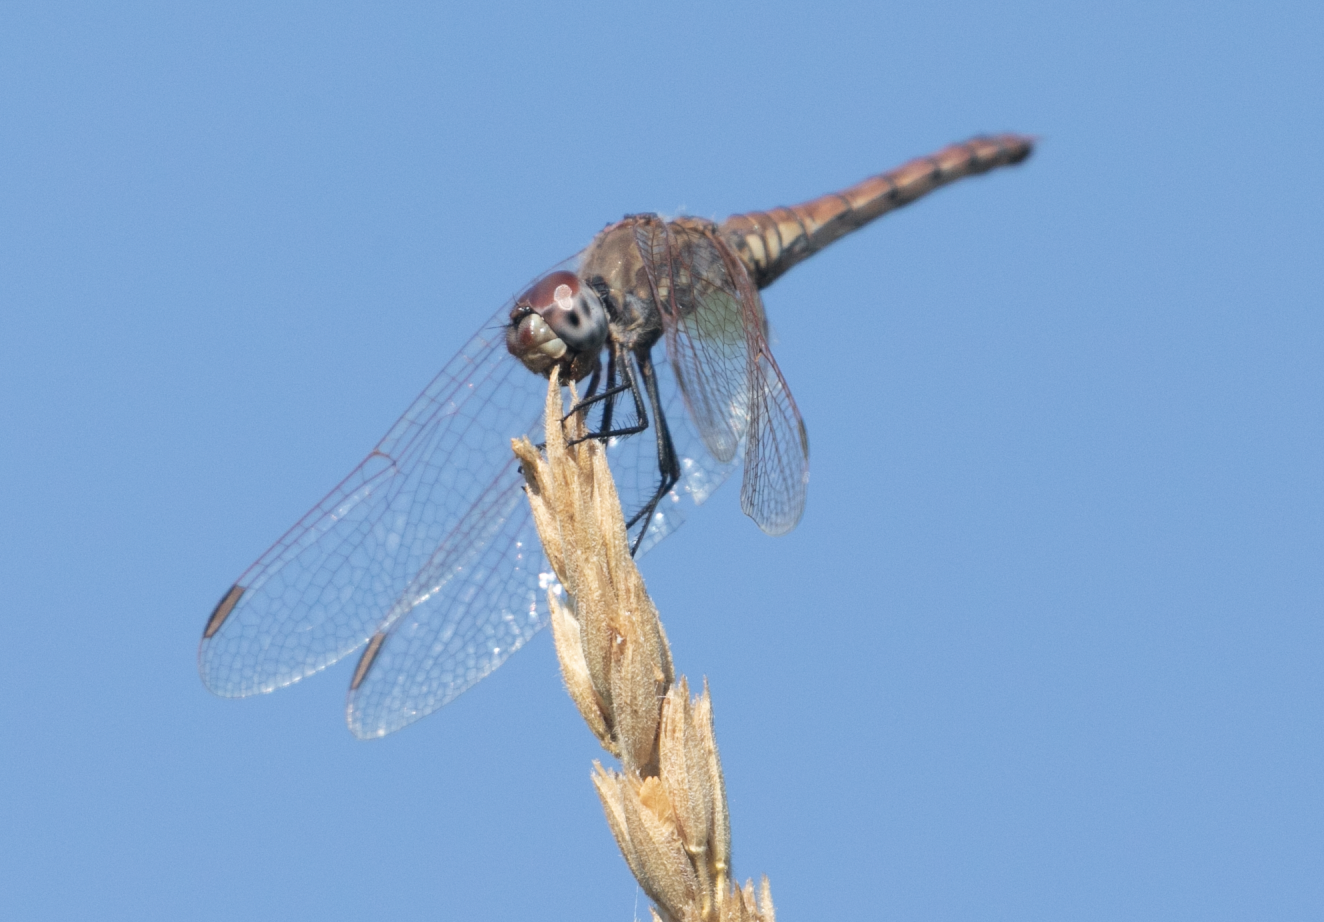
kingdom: Animalia
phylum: Arthropoda
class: Insecta
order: Odonata
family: Libellulidae
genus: Trithemis
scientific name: Trithemis annulata
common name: Violet dropwing
